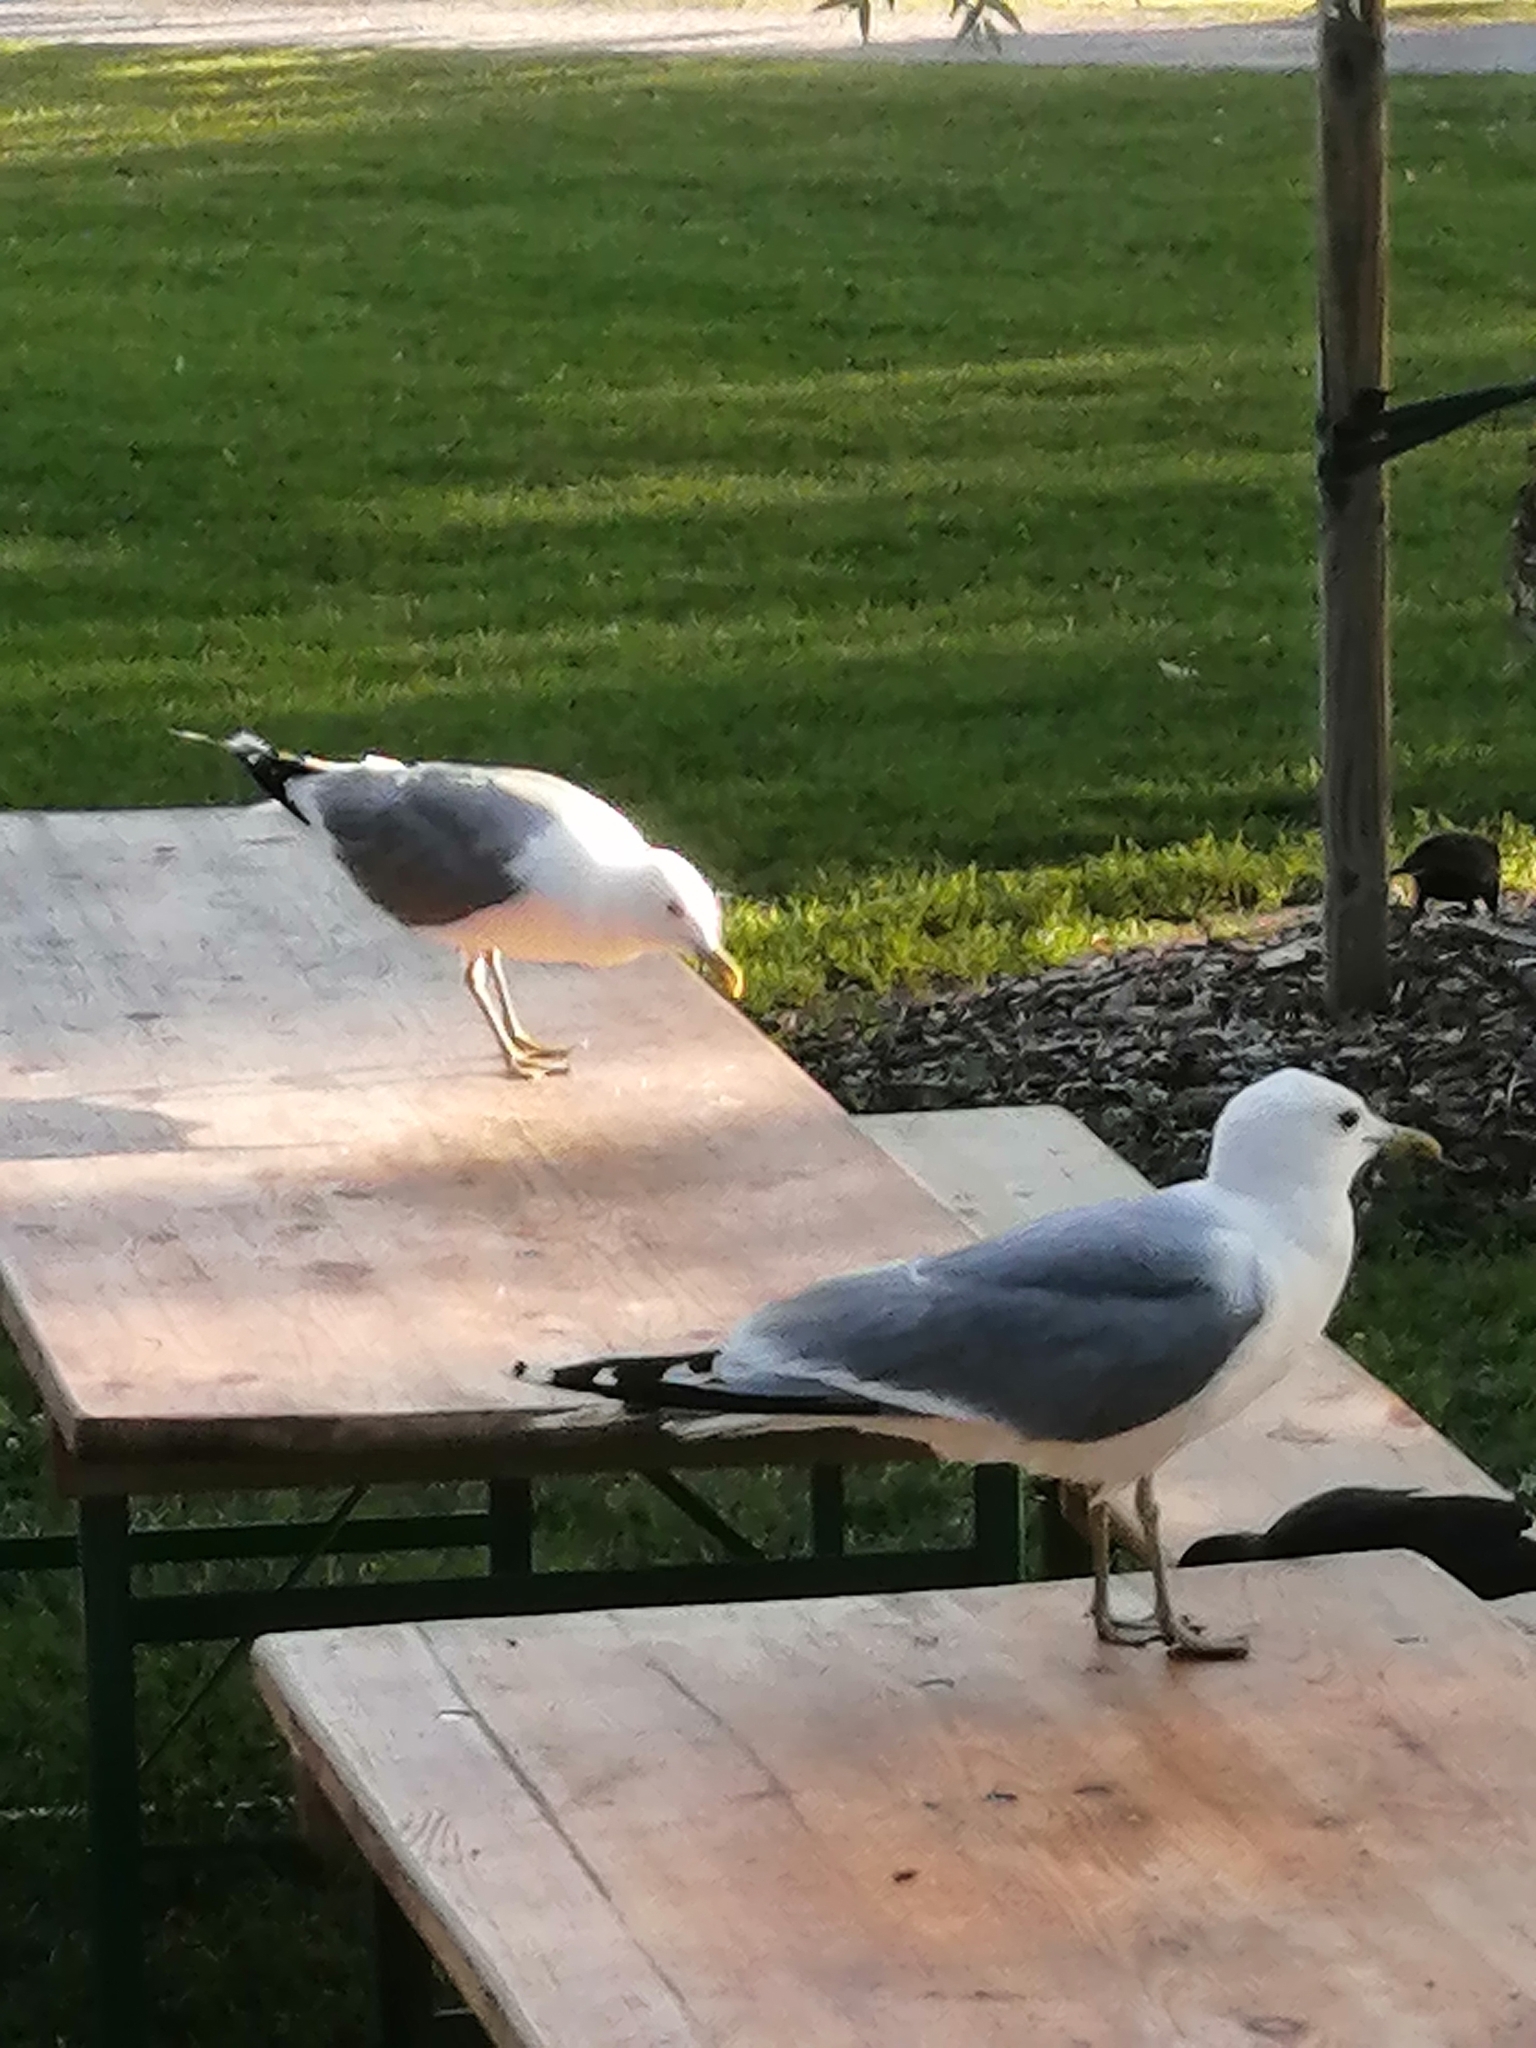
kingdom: Animalia
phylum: Chordata
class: Aves
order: Charadriiformes
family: Laridae
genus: Larus
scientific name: Larus canus
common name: Mew gull
